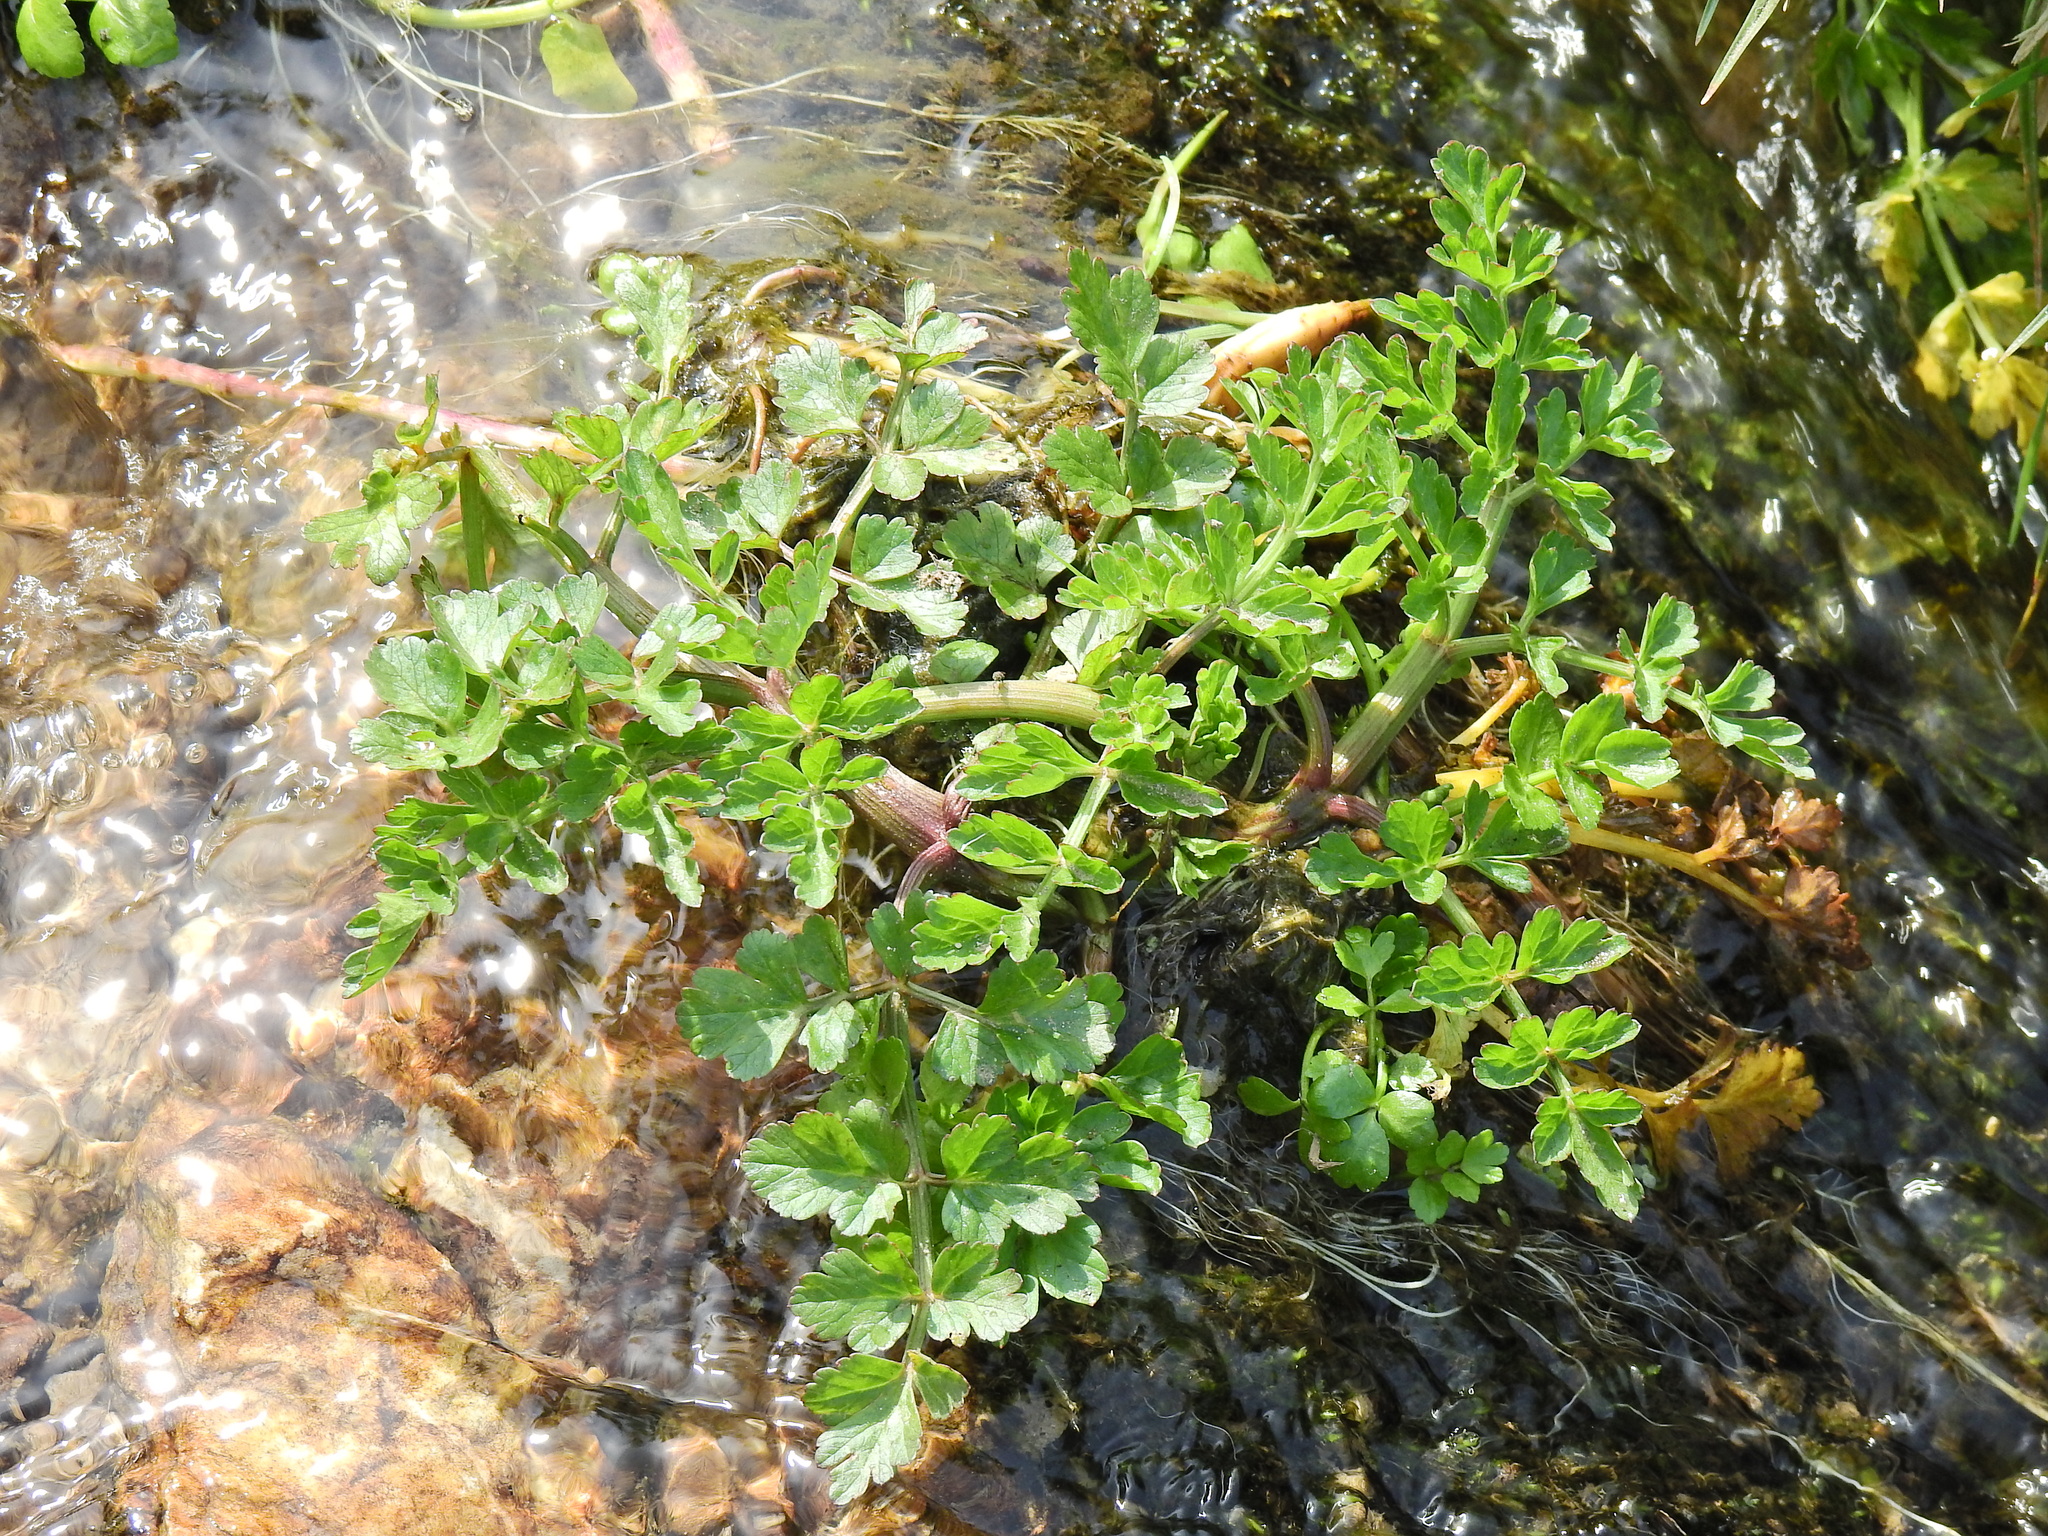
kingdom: Plantae
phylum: Tracheophyta
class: Magnoliopsida
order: Apiales
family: Apiaceae
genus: Oenanthe
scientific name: Oenanthe crocata
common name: Hemlock water-dropwort
